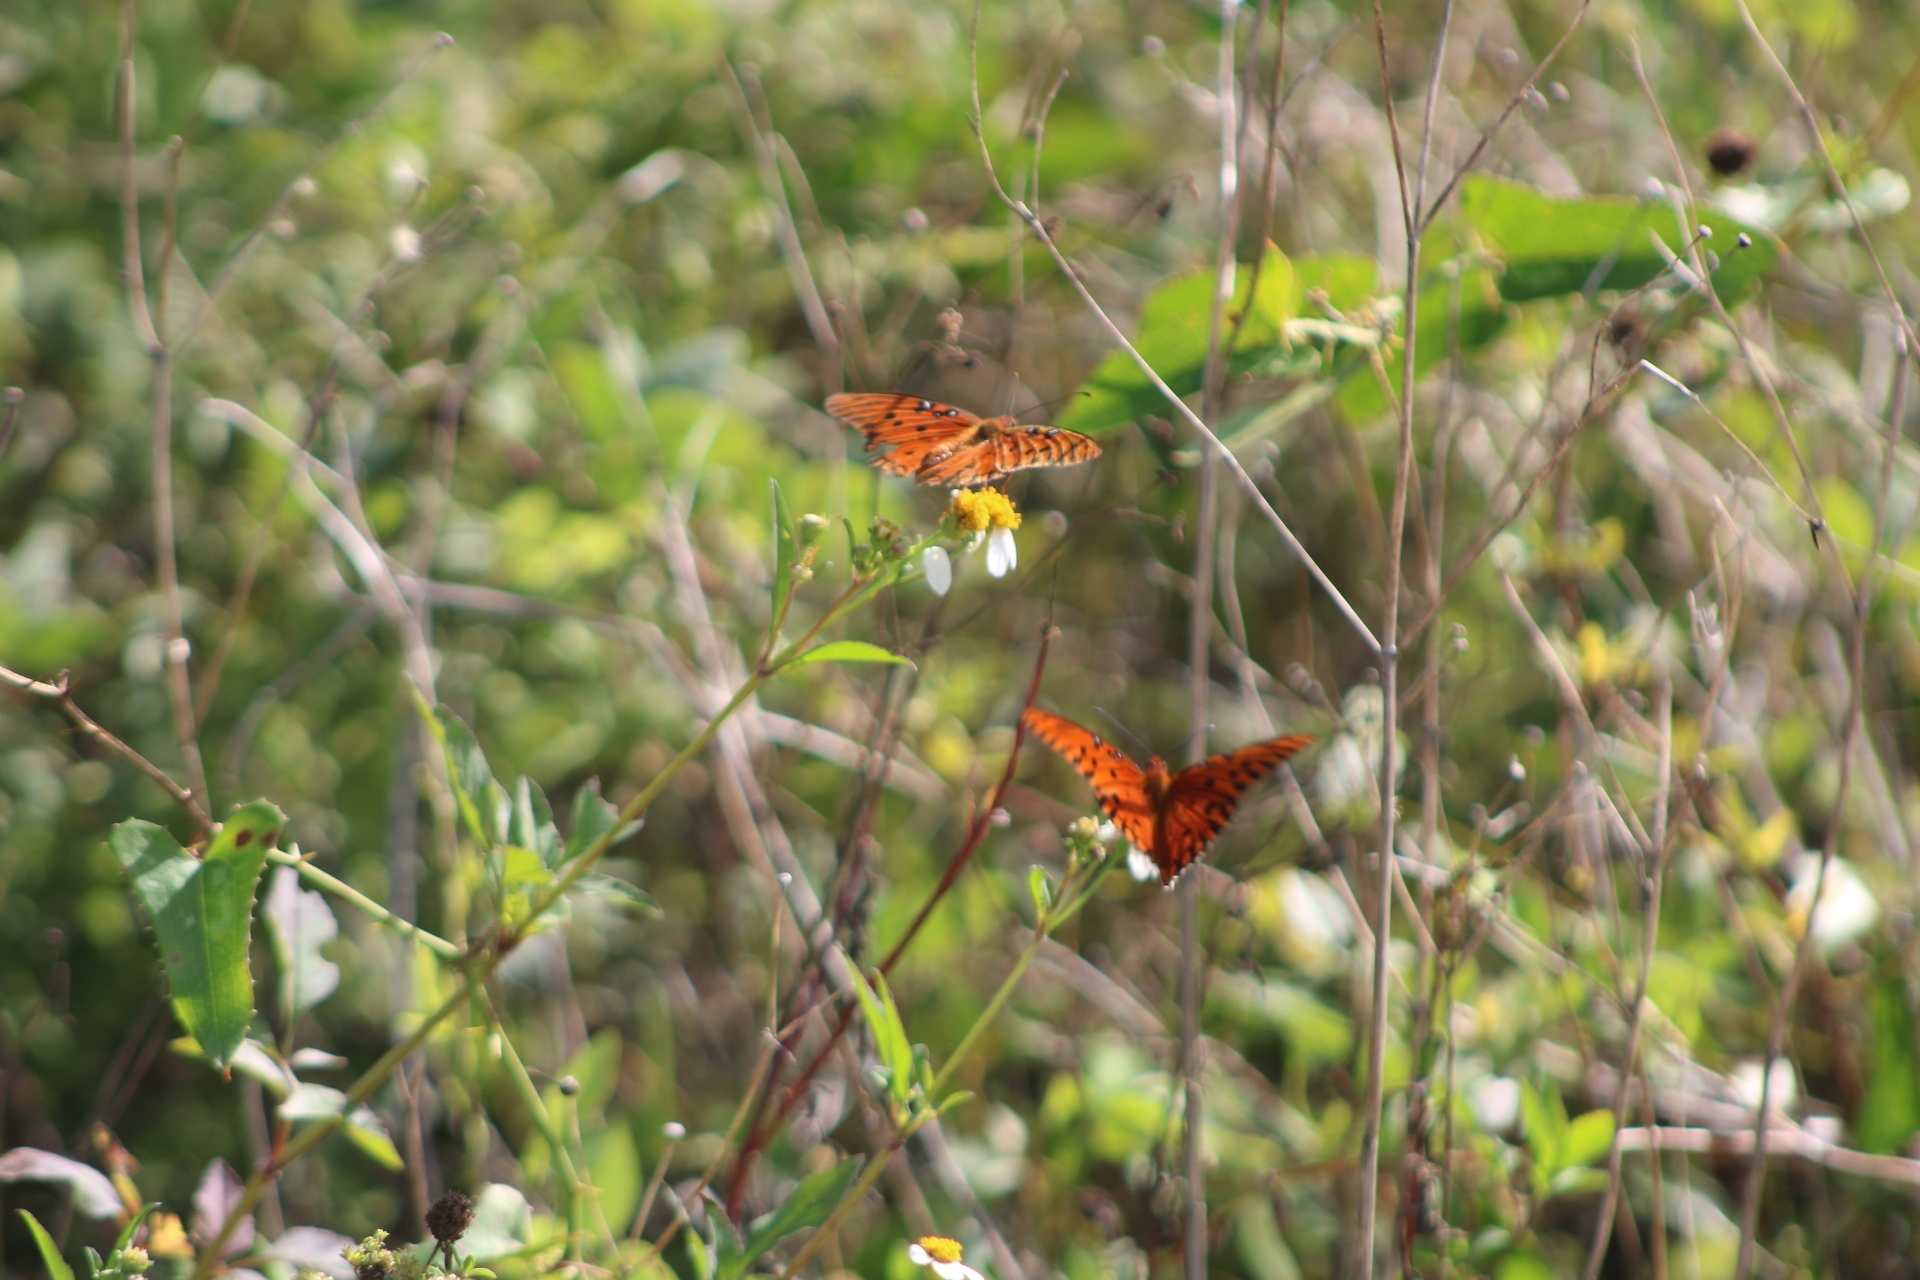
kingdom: Animalia
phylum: Arthropoda
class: Insecta
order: Lepidoptera
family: Nymphalidae
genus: Dione
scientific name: Dione vanillae
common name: Gulf fritillary
